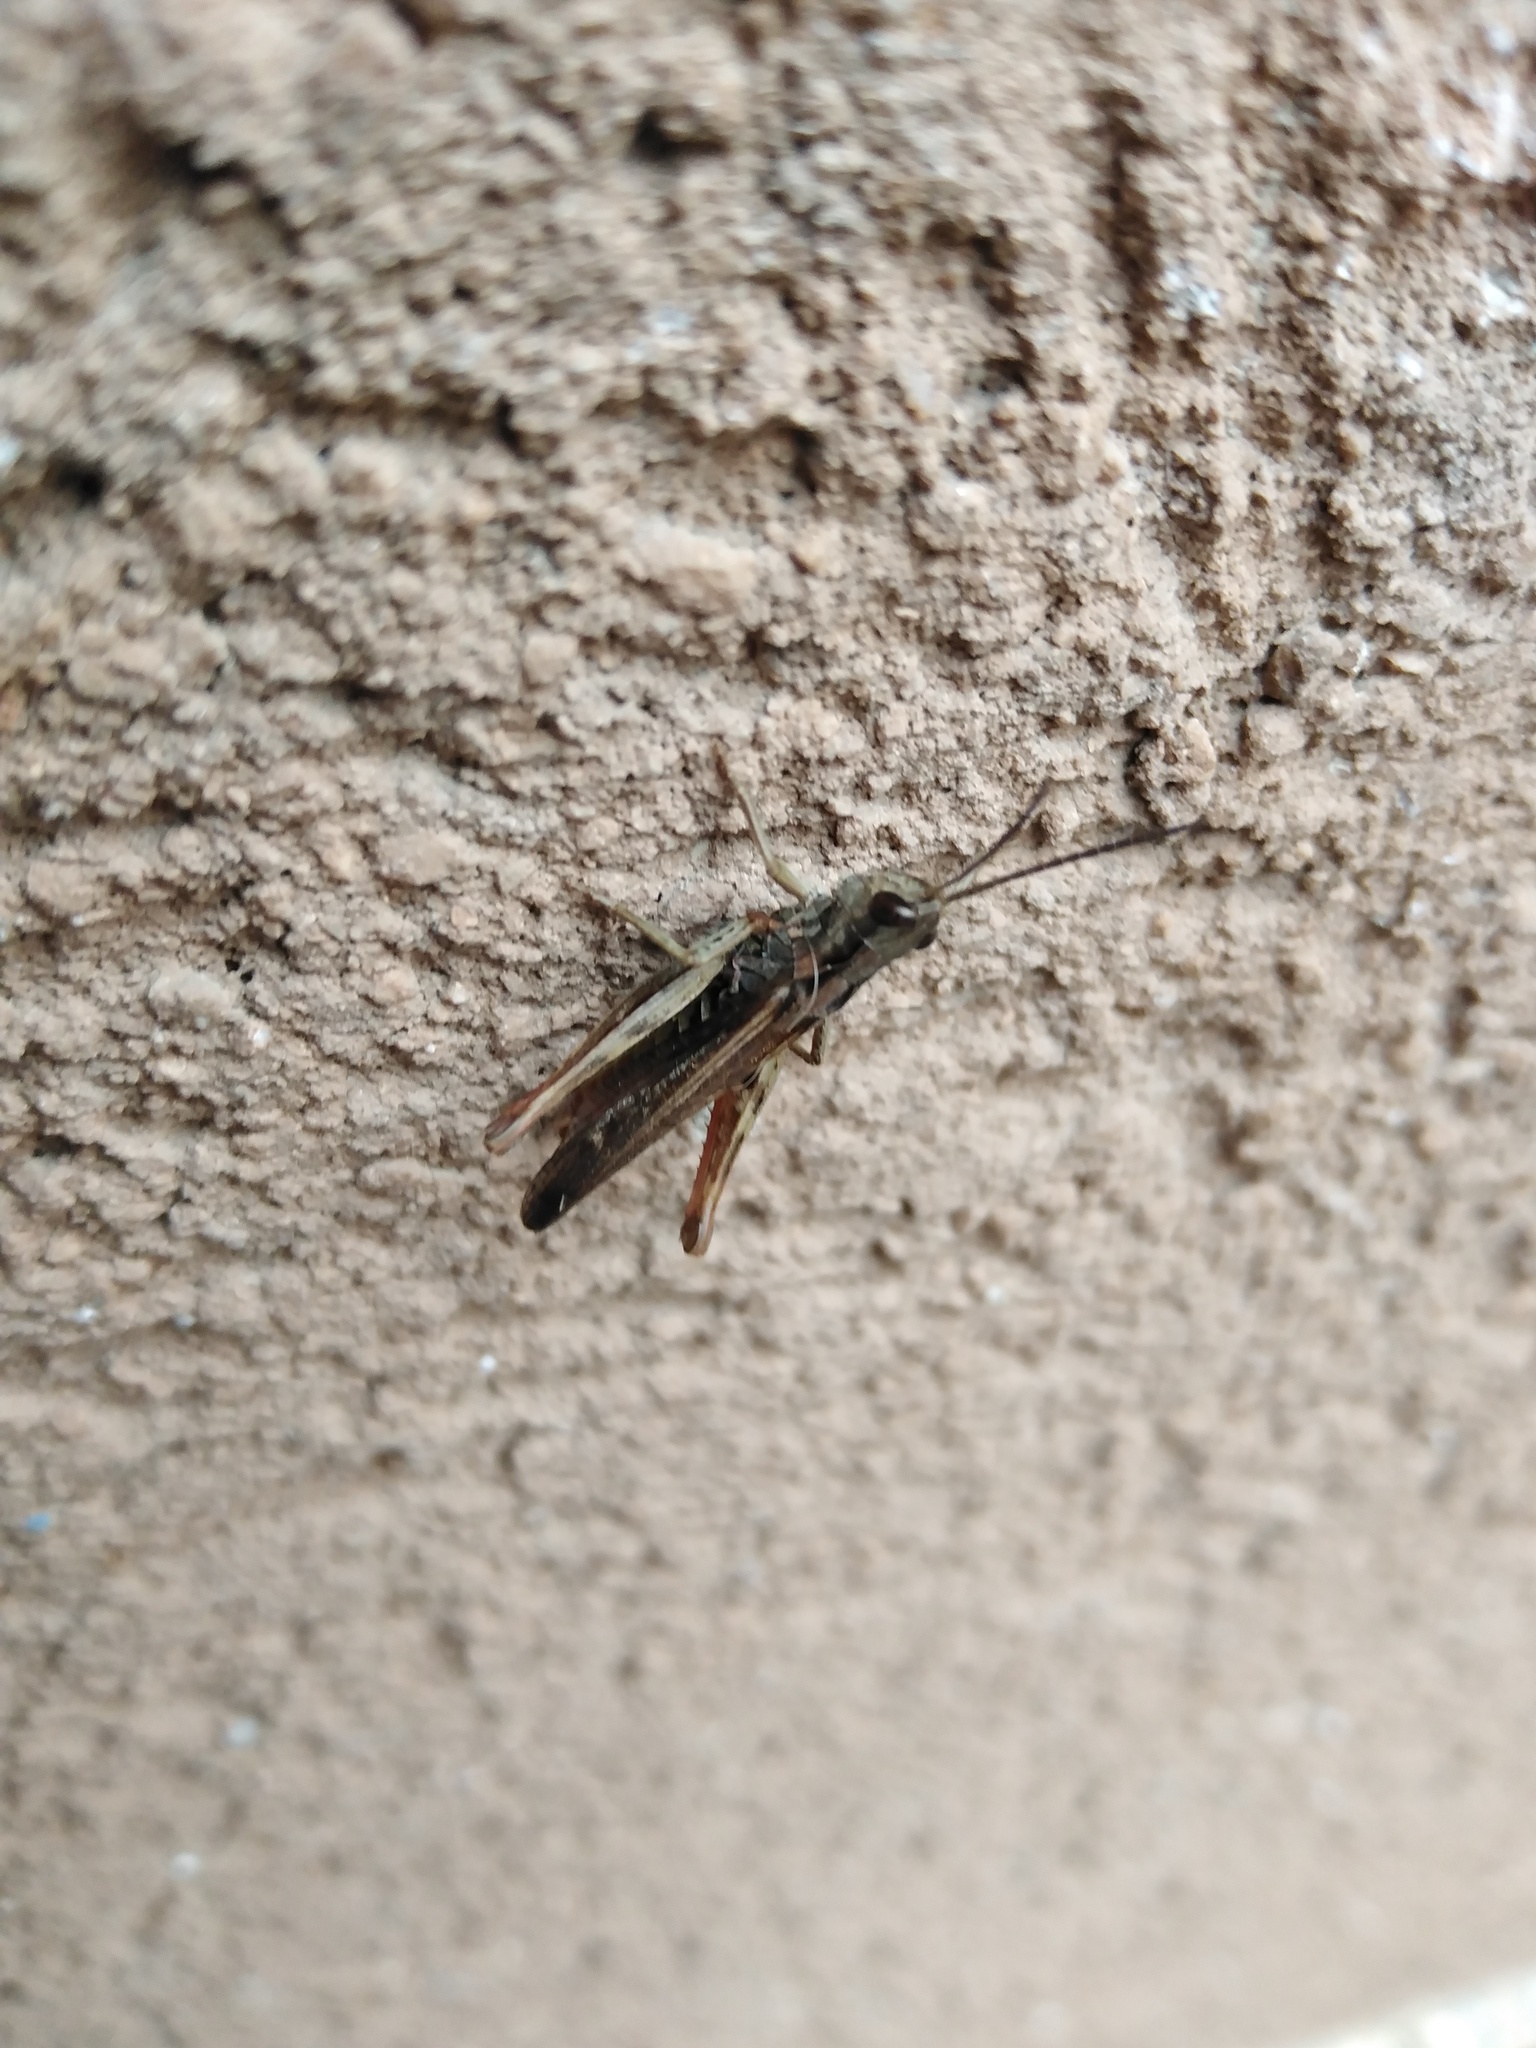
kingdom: Animalia
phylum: Arthropoda
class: Insecta
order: Orthoptera
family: Acrididae
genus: Chorthippus
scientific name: Chorthippus biguttulus
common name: Bow-winged grasshopper
